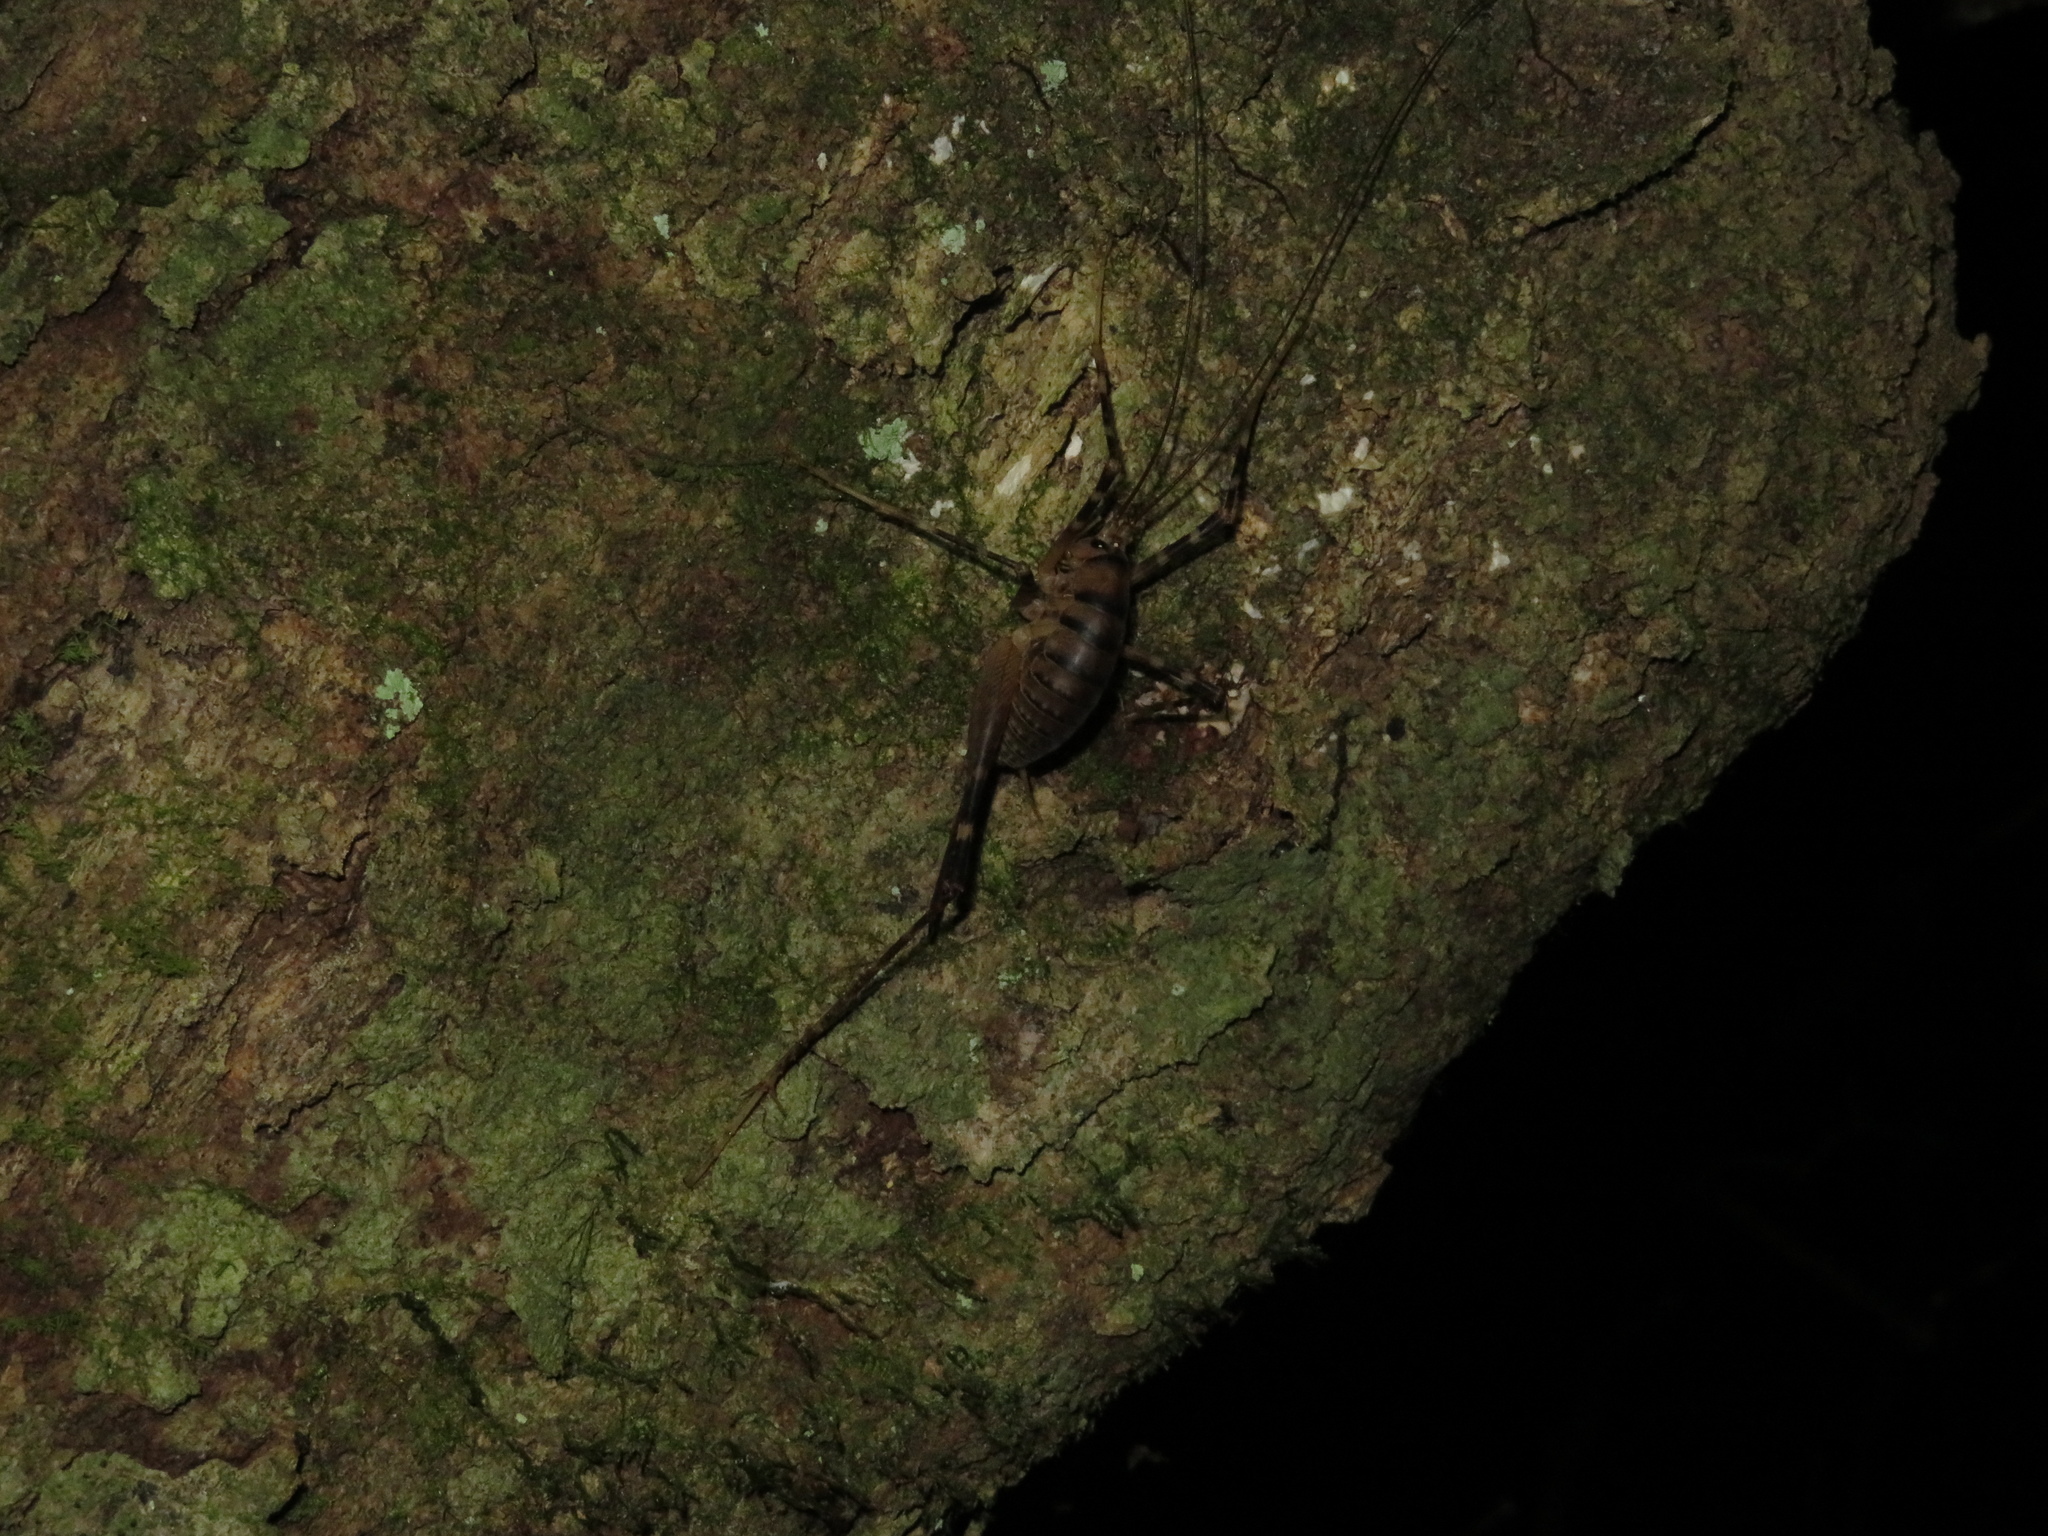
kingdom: Animalia
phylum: Arthropoda
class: Insecta
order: Orthoptera
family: Rhaphidophoridae
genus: Pachyrhamma
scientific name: Pachyrhamma edwardsii
